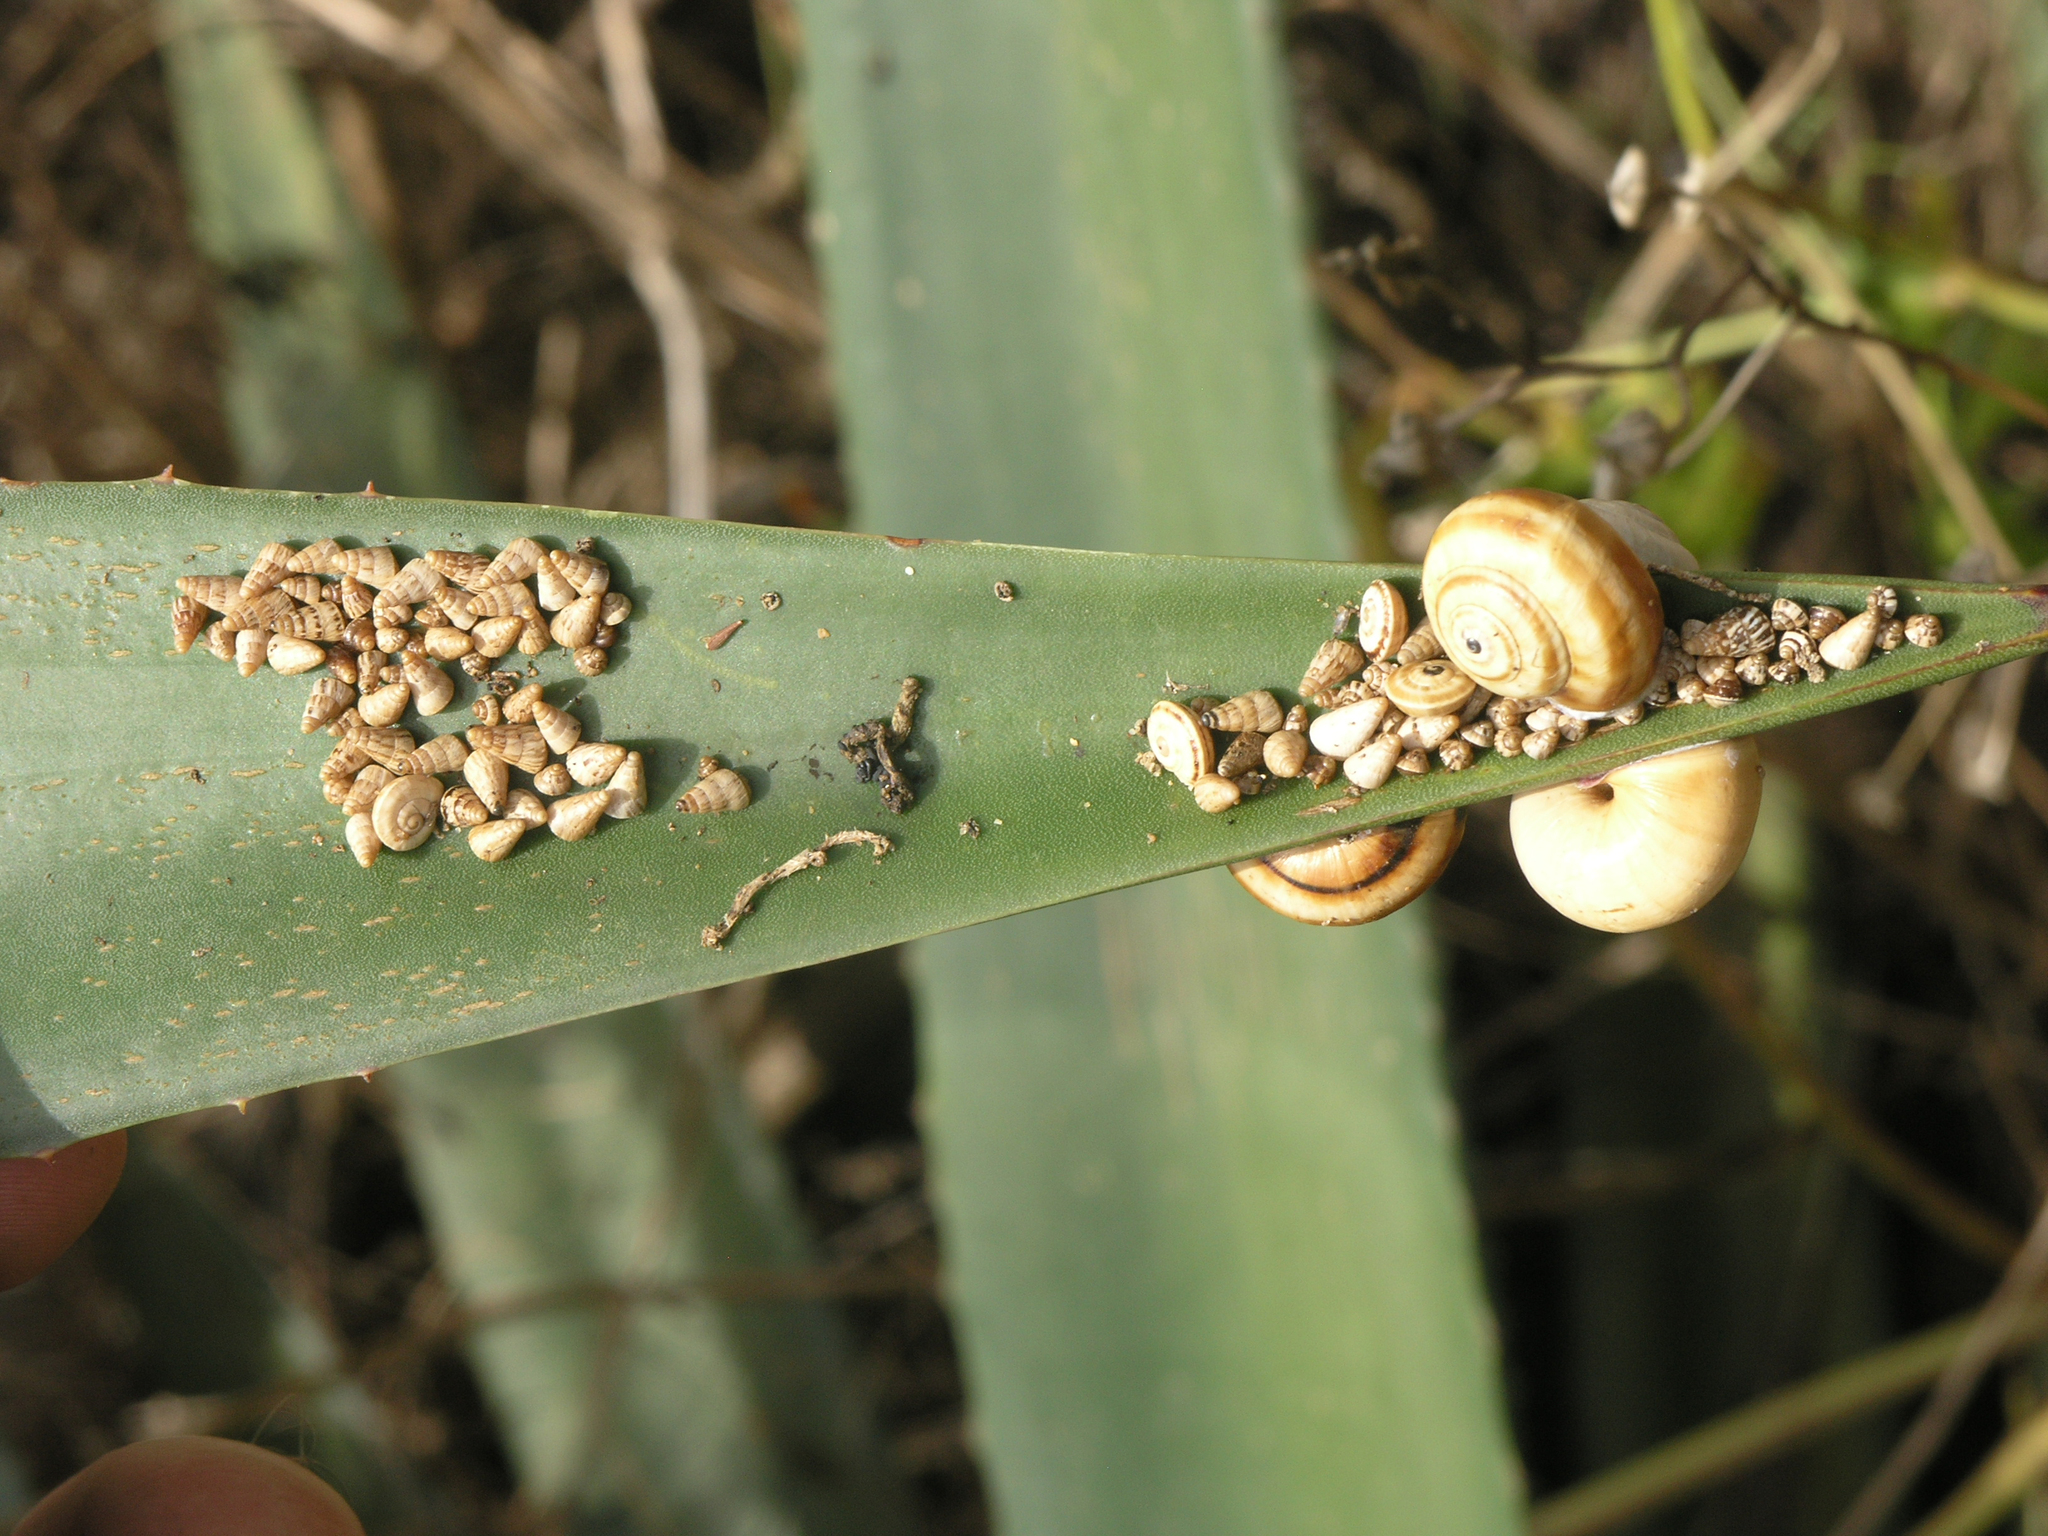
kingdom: Animalia
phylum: Mollusca
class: Gastropoda
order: Stylommatophora
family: Geomitridae
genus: Cochlicella
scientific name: Cochlicella acuta
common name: Pointed snail
